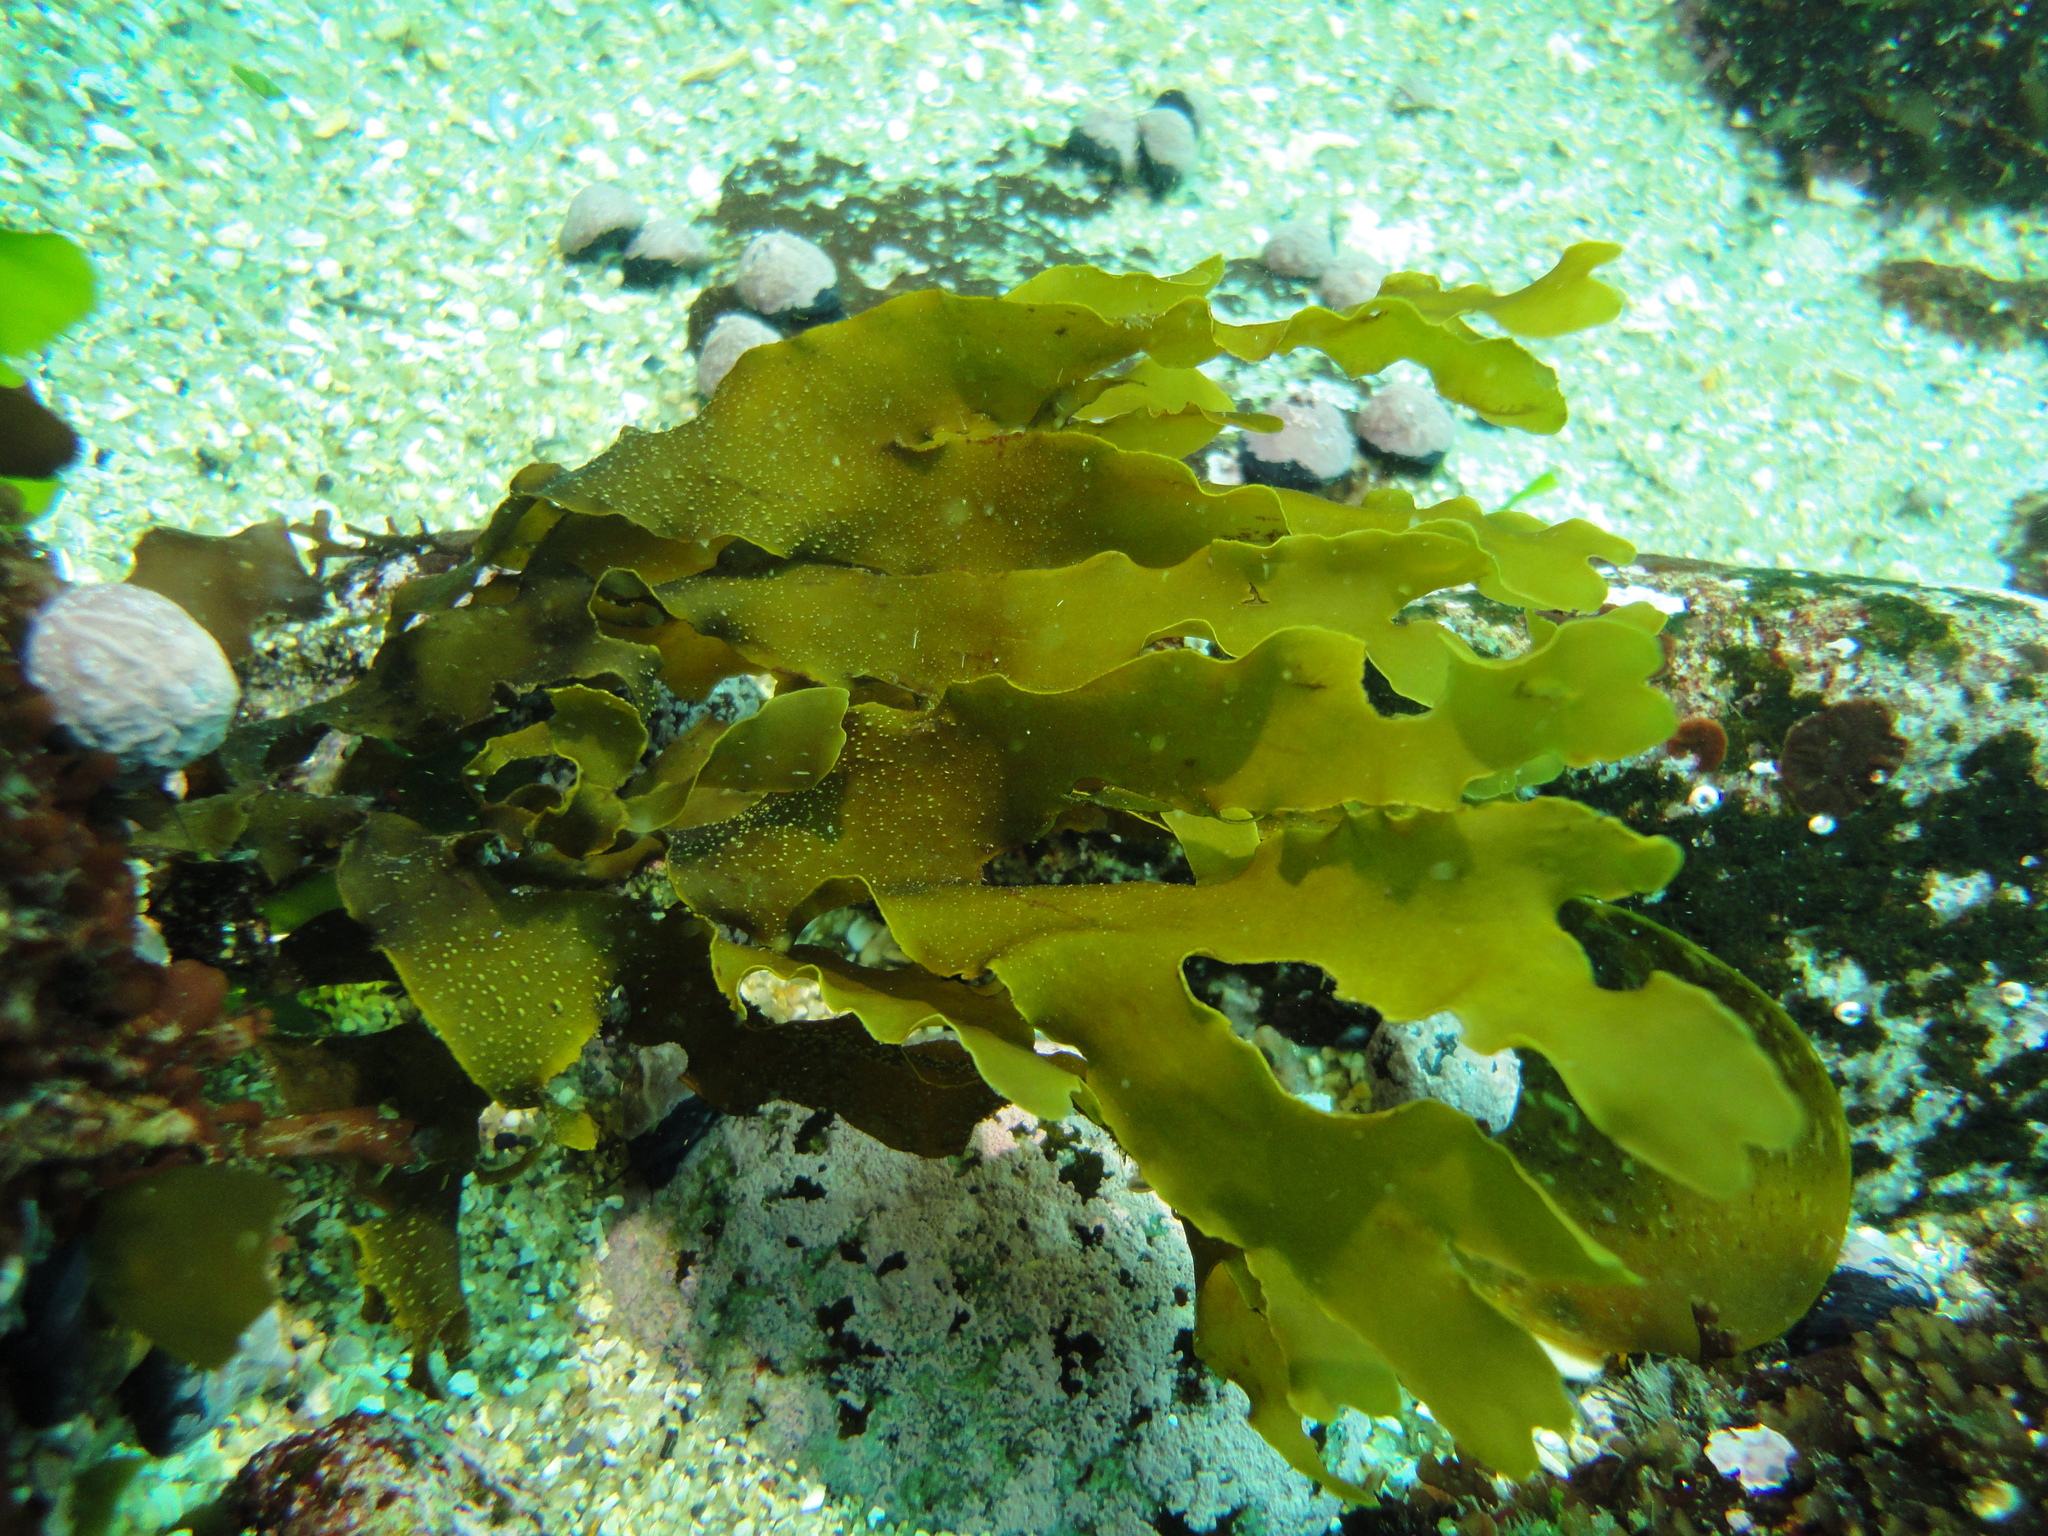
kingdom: Chromista
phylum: Ochrophyta
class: Phaeophyceae
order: Dictyotales
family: Dictyotaceae
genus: Dictyota
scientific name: Dictyota kunthii
